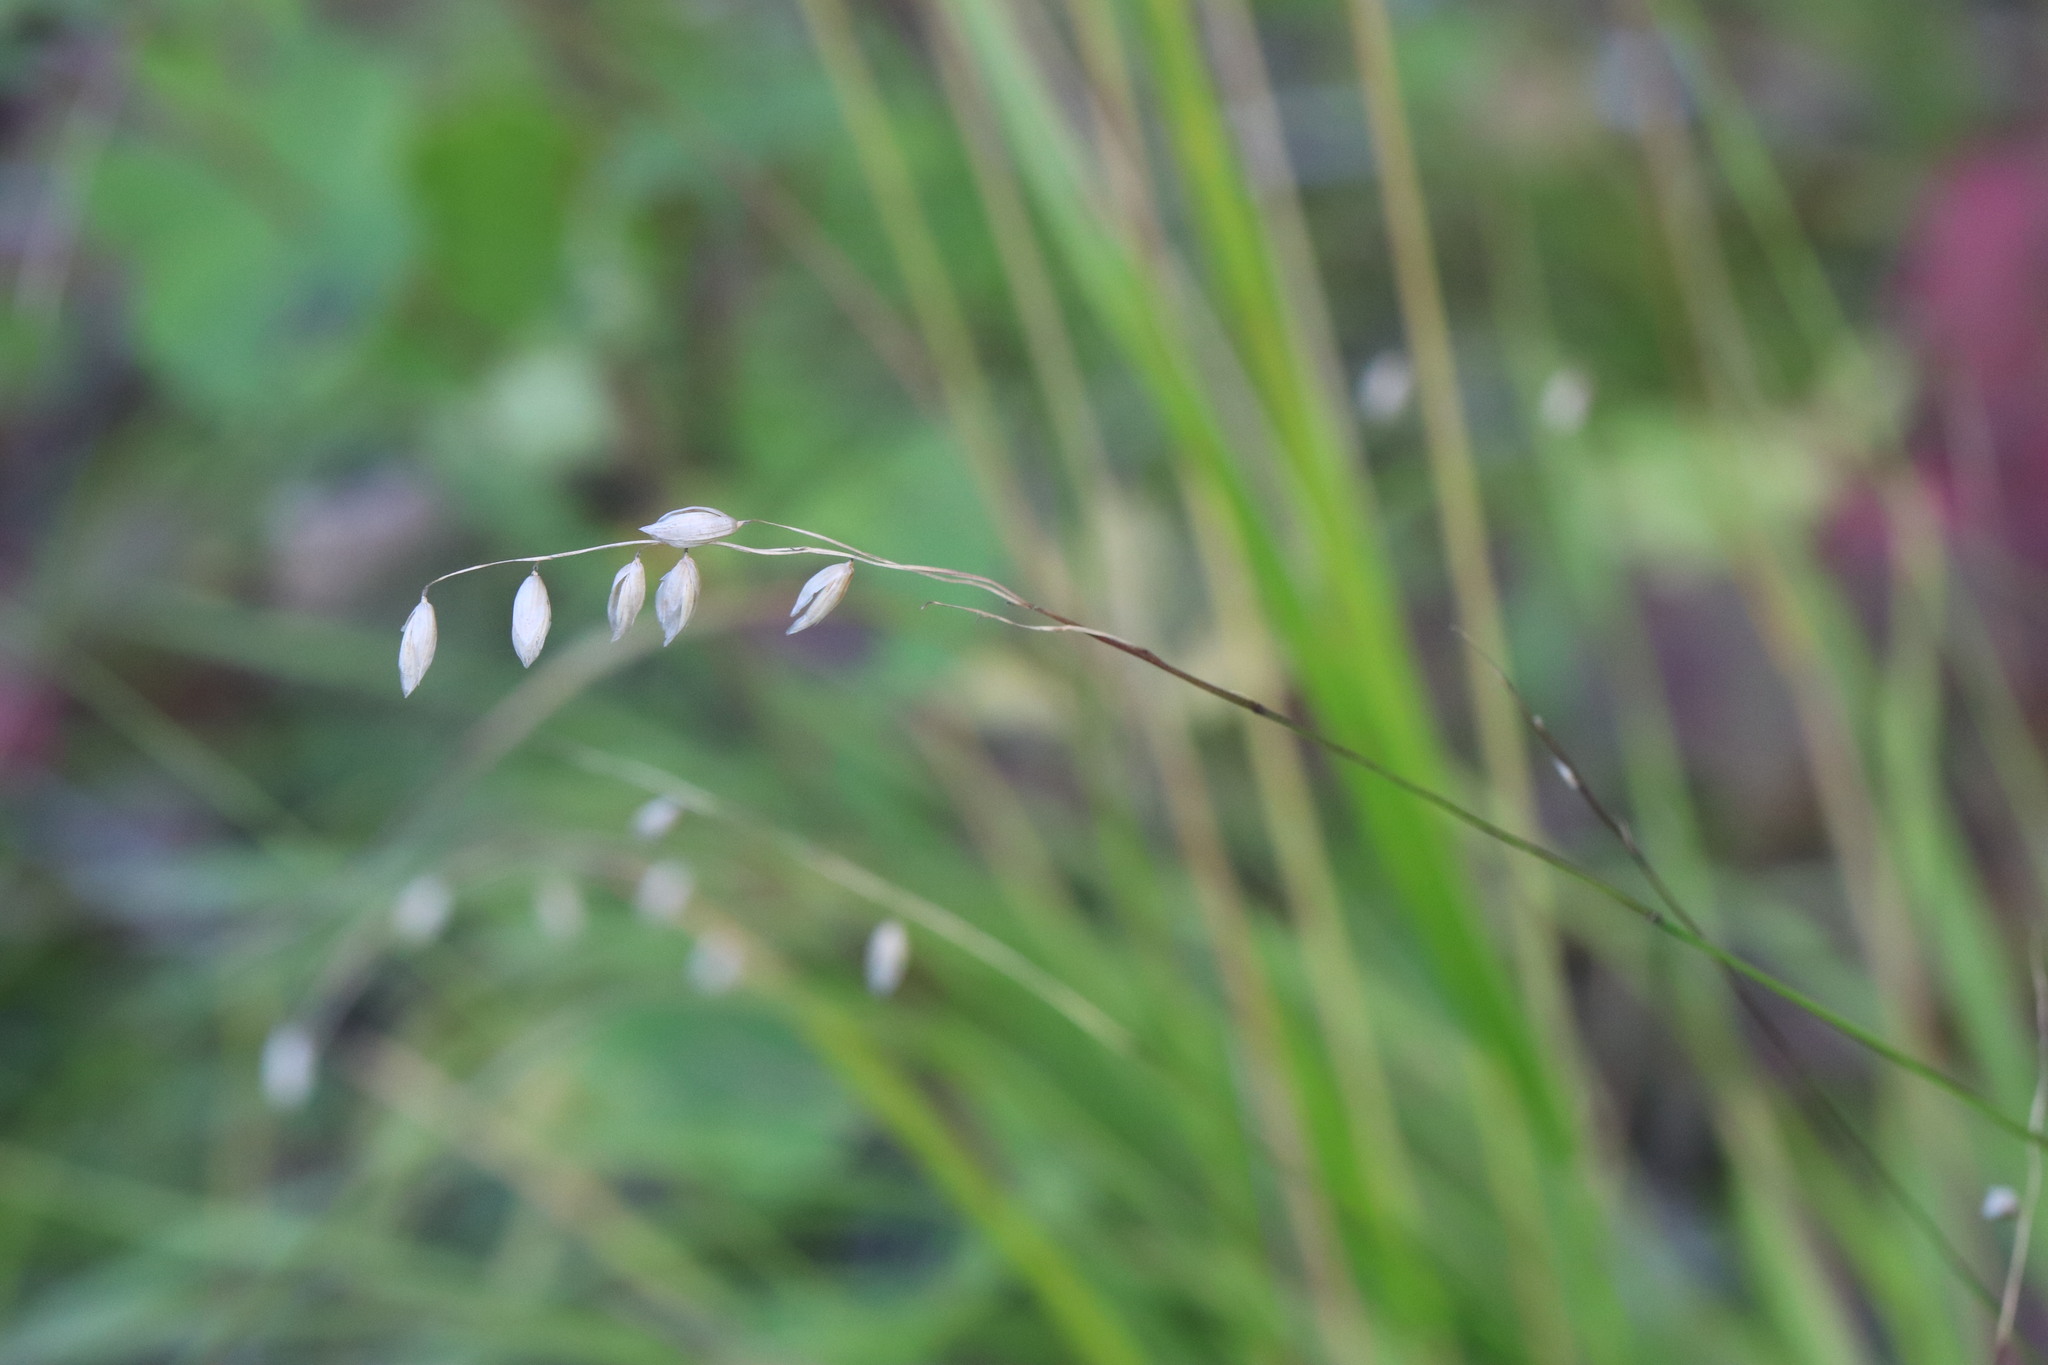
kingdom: Plantae
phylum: Tracheophyta
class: Liliopsida
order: Poales
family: Poaceae
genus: Melica
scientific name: Melica nutans
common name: Mountain melick
